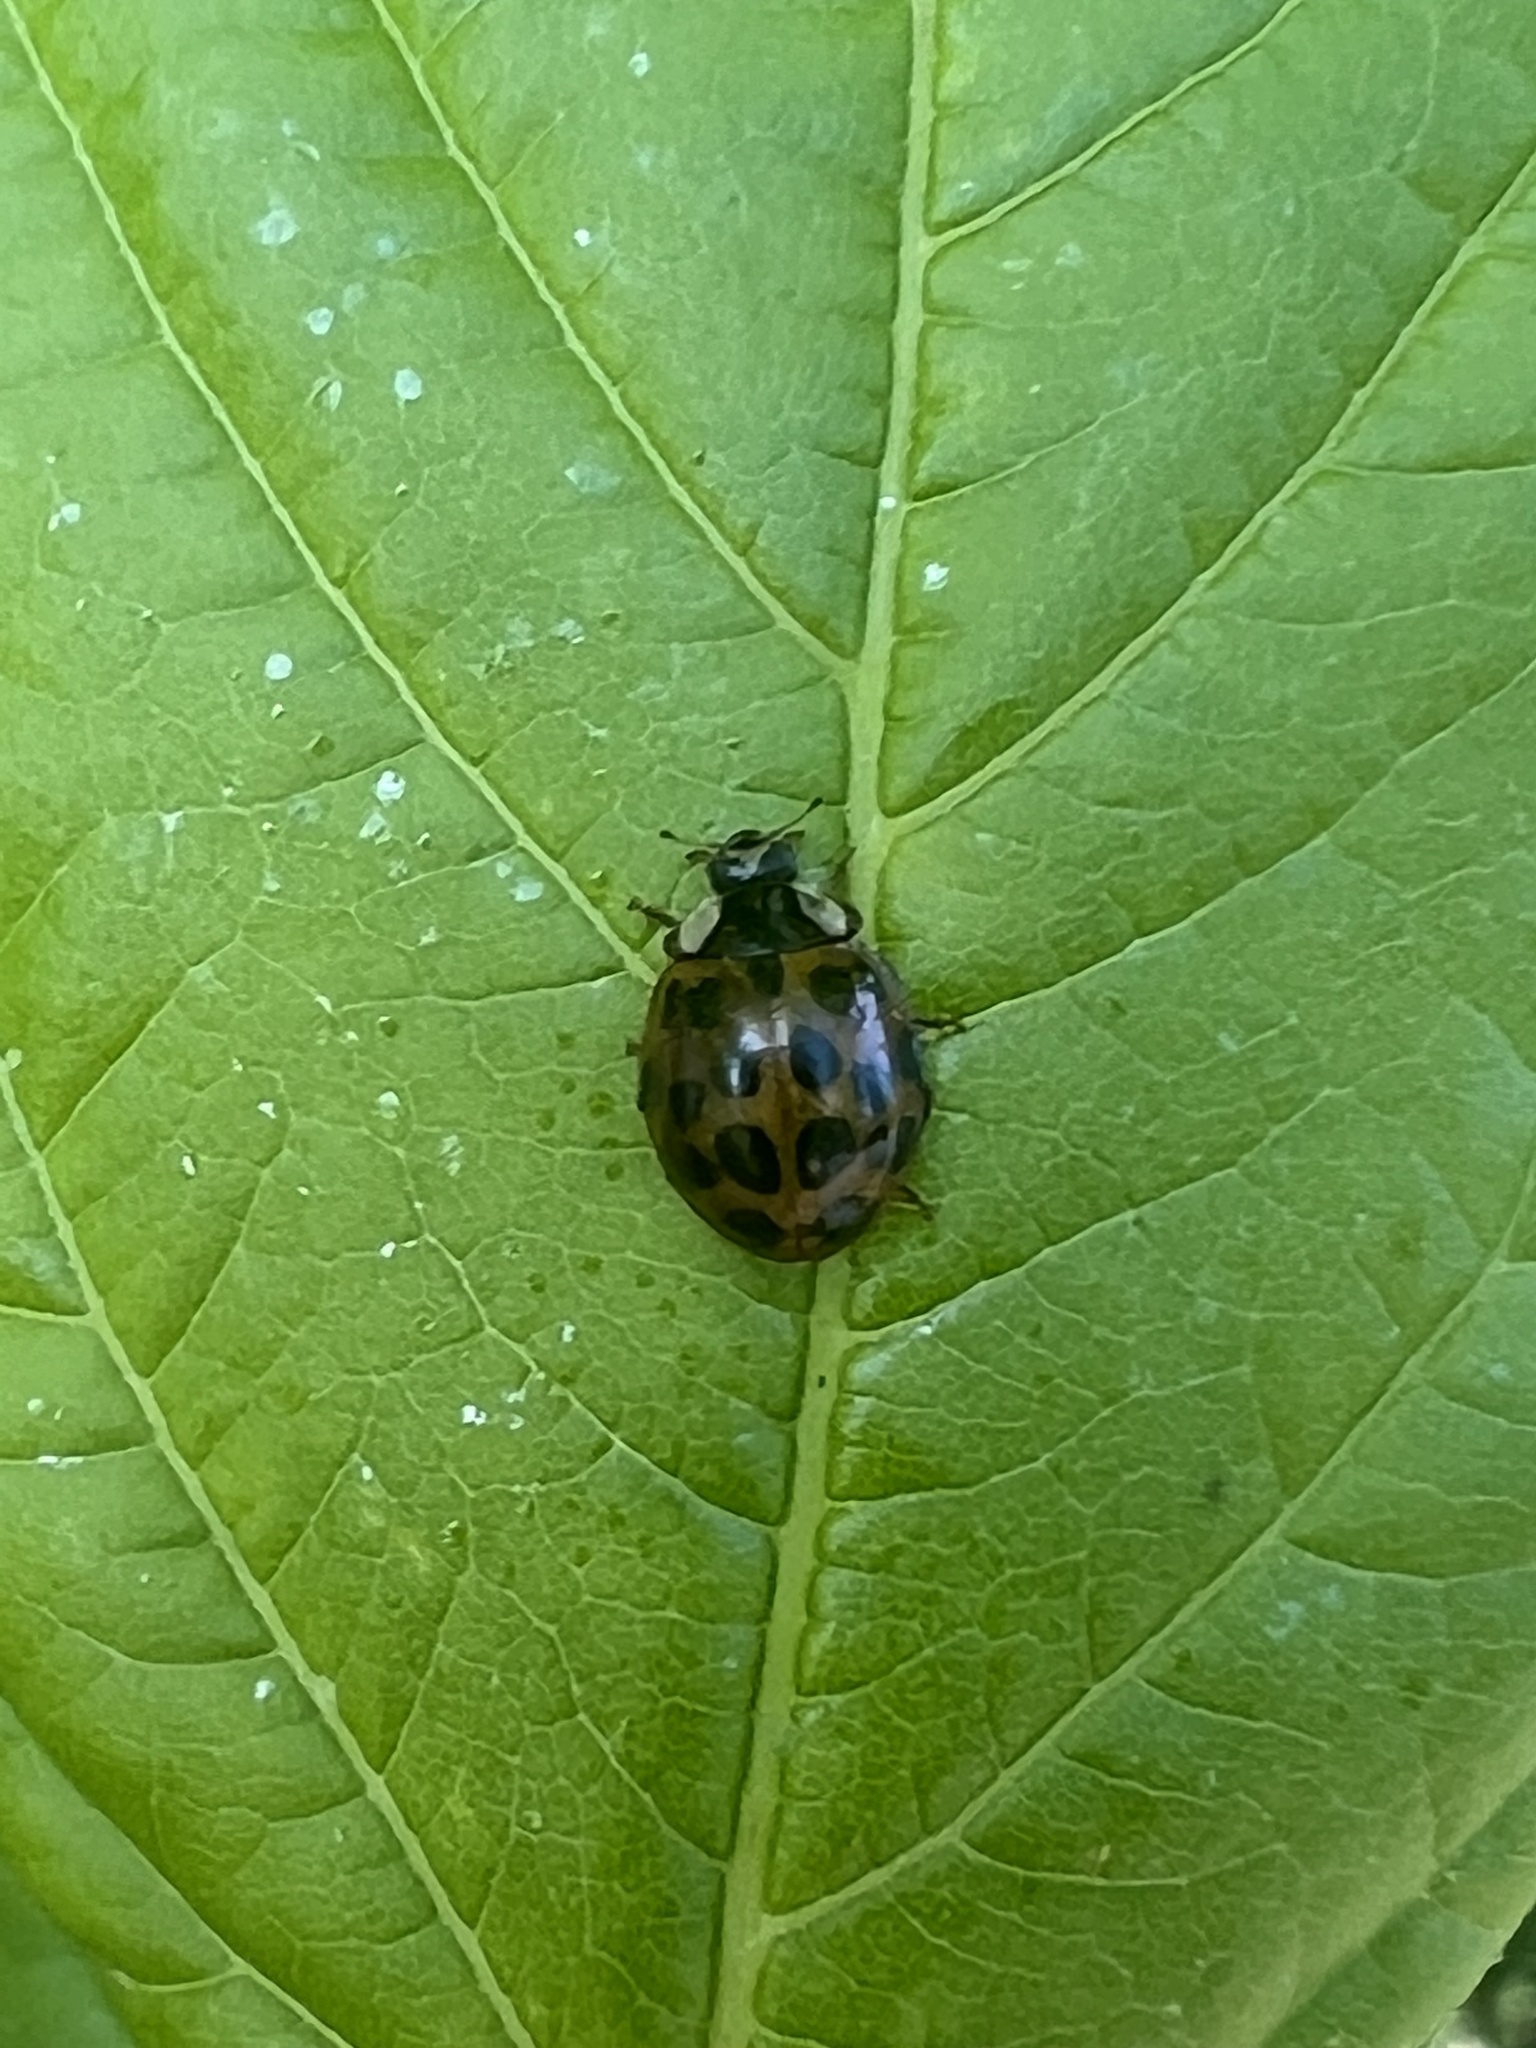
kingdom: Animalia
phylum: Arthropoda
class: Insecta
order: Coleoptera
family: Coccinellidae
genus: Harmonia
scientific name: Harmonia axyridis
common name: Harlequin ladybird
